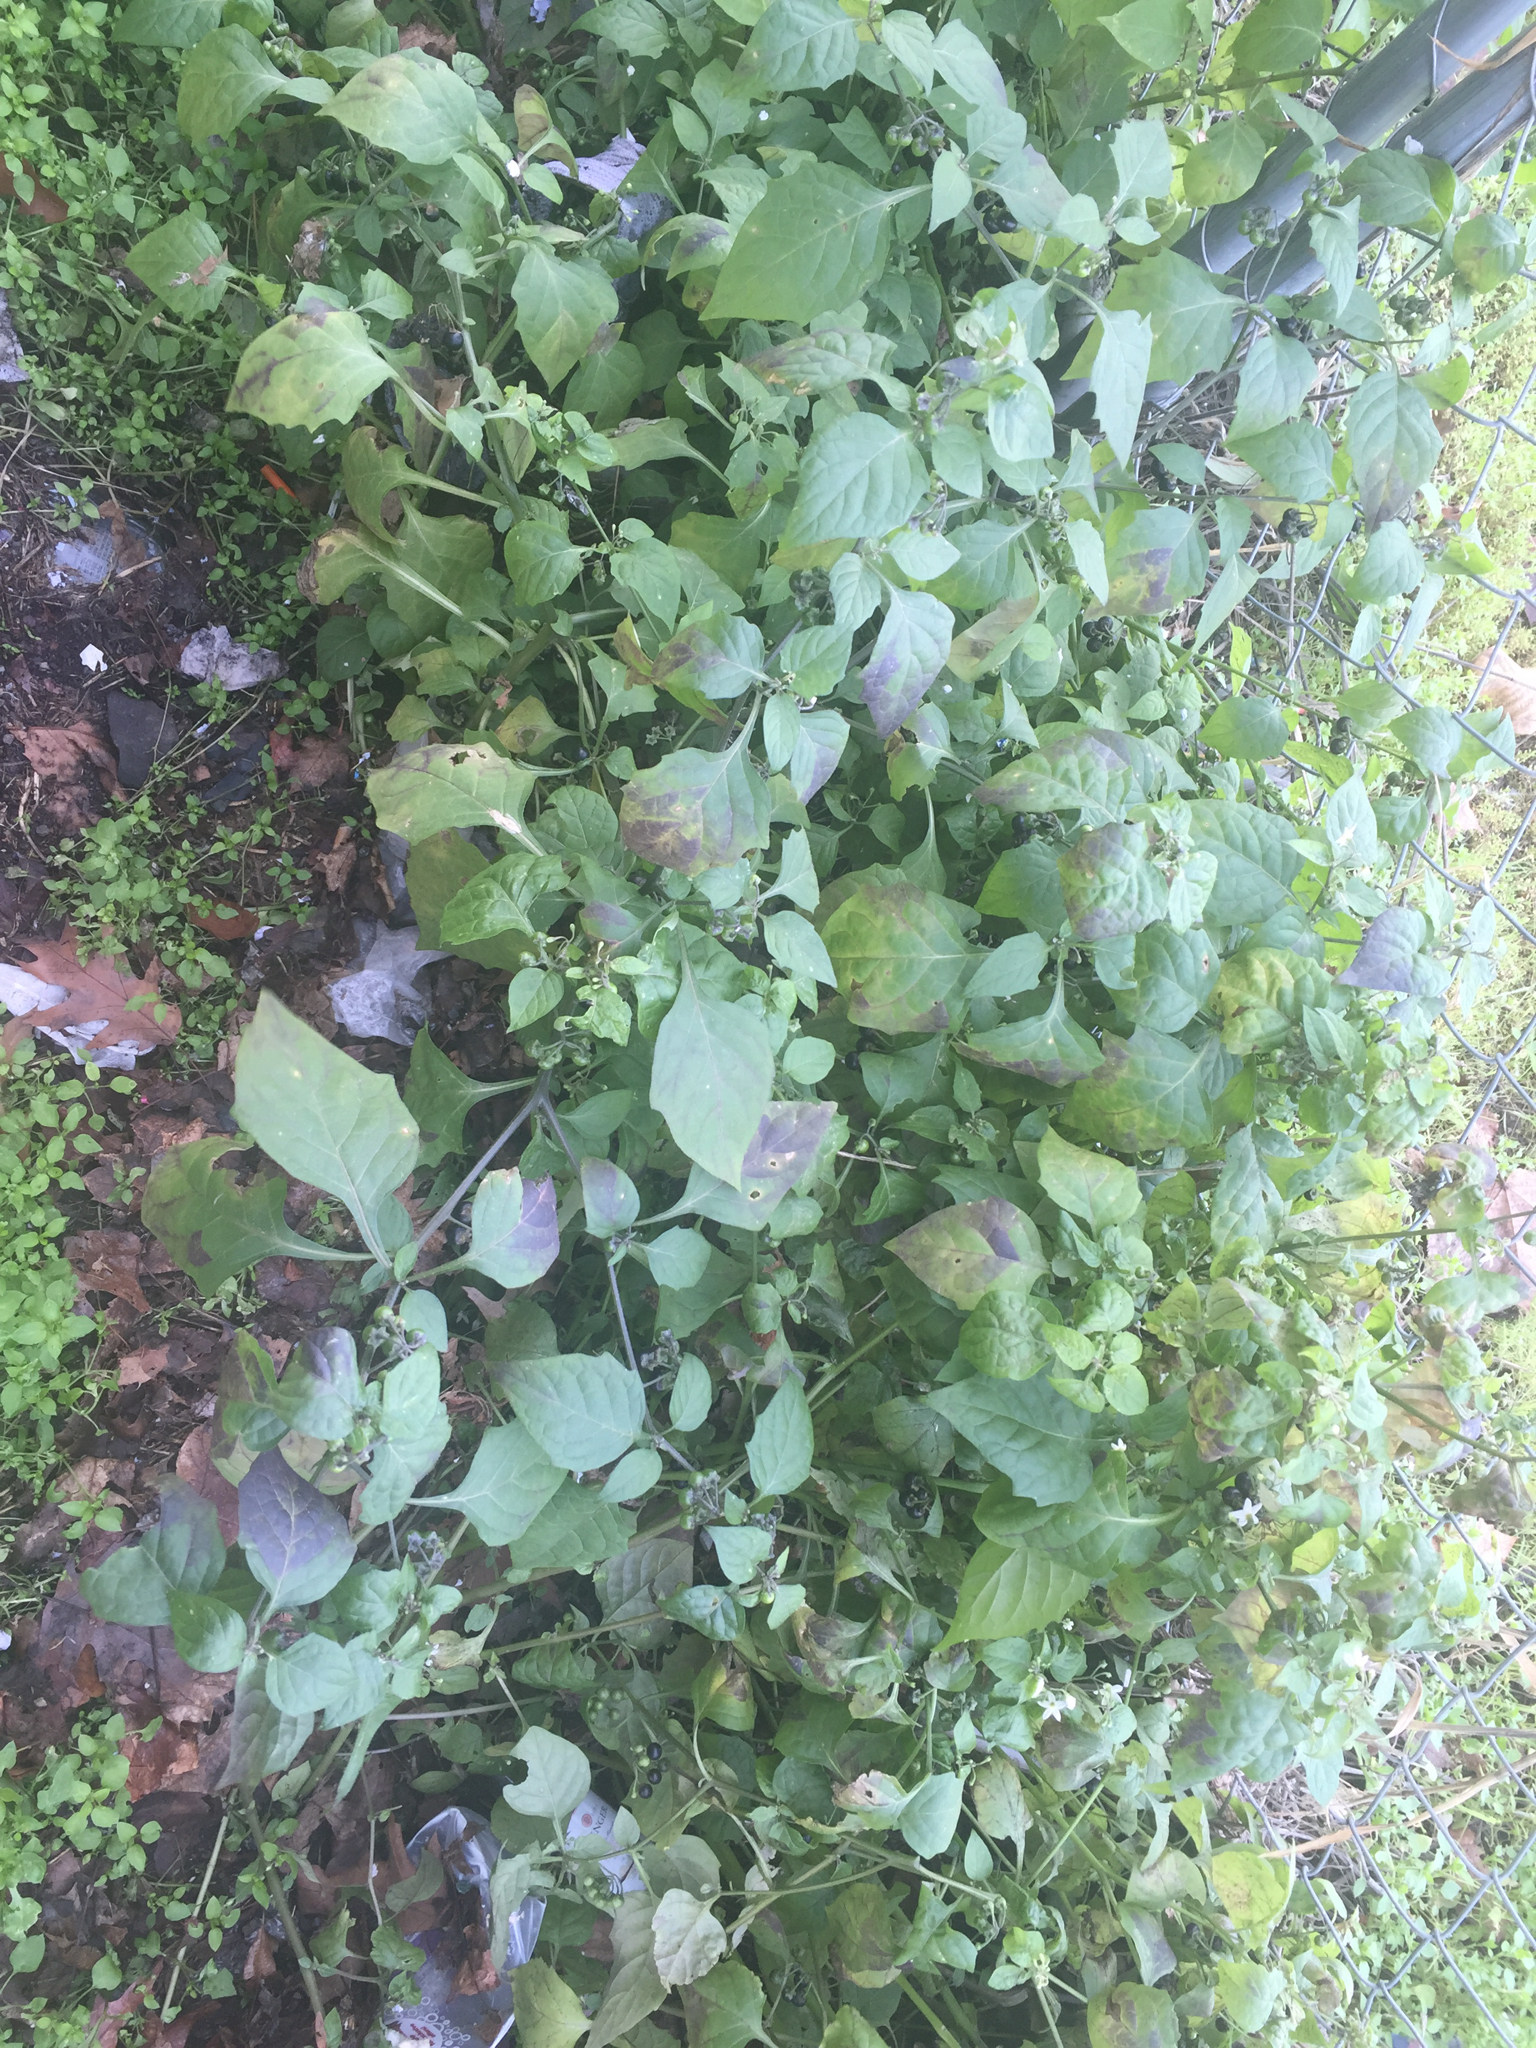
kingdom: Plantae
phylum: Tracheophyta
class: Magnoliopsida
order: Solanales
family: Solanaceae
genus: Solanum
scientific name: Solanum nigrum
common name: Black nightshade
